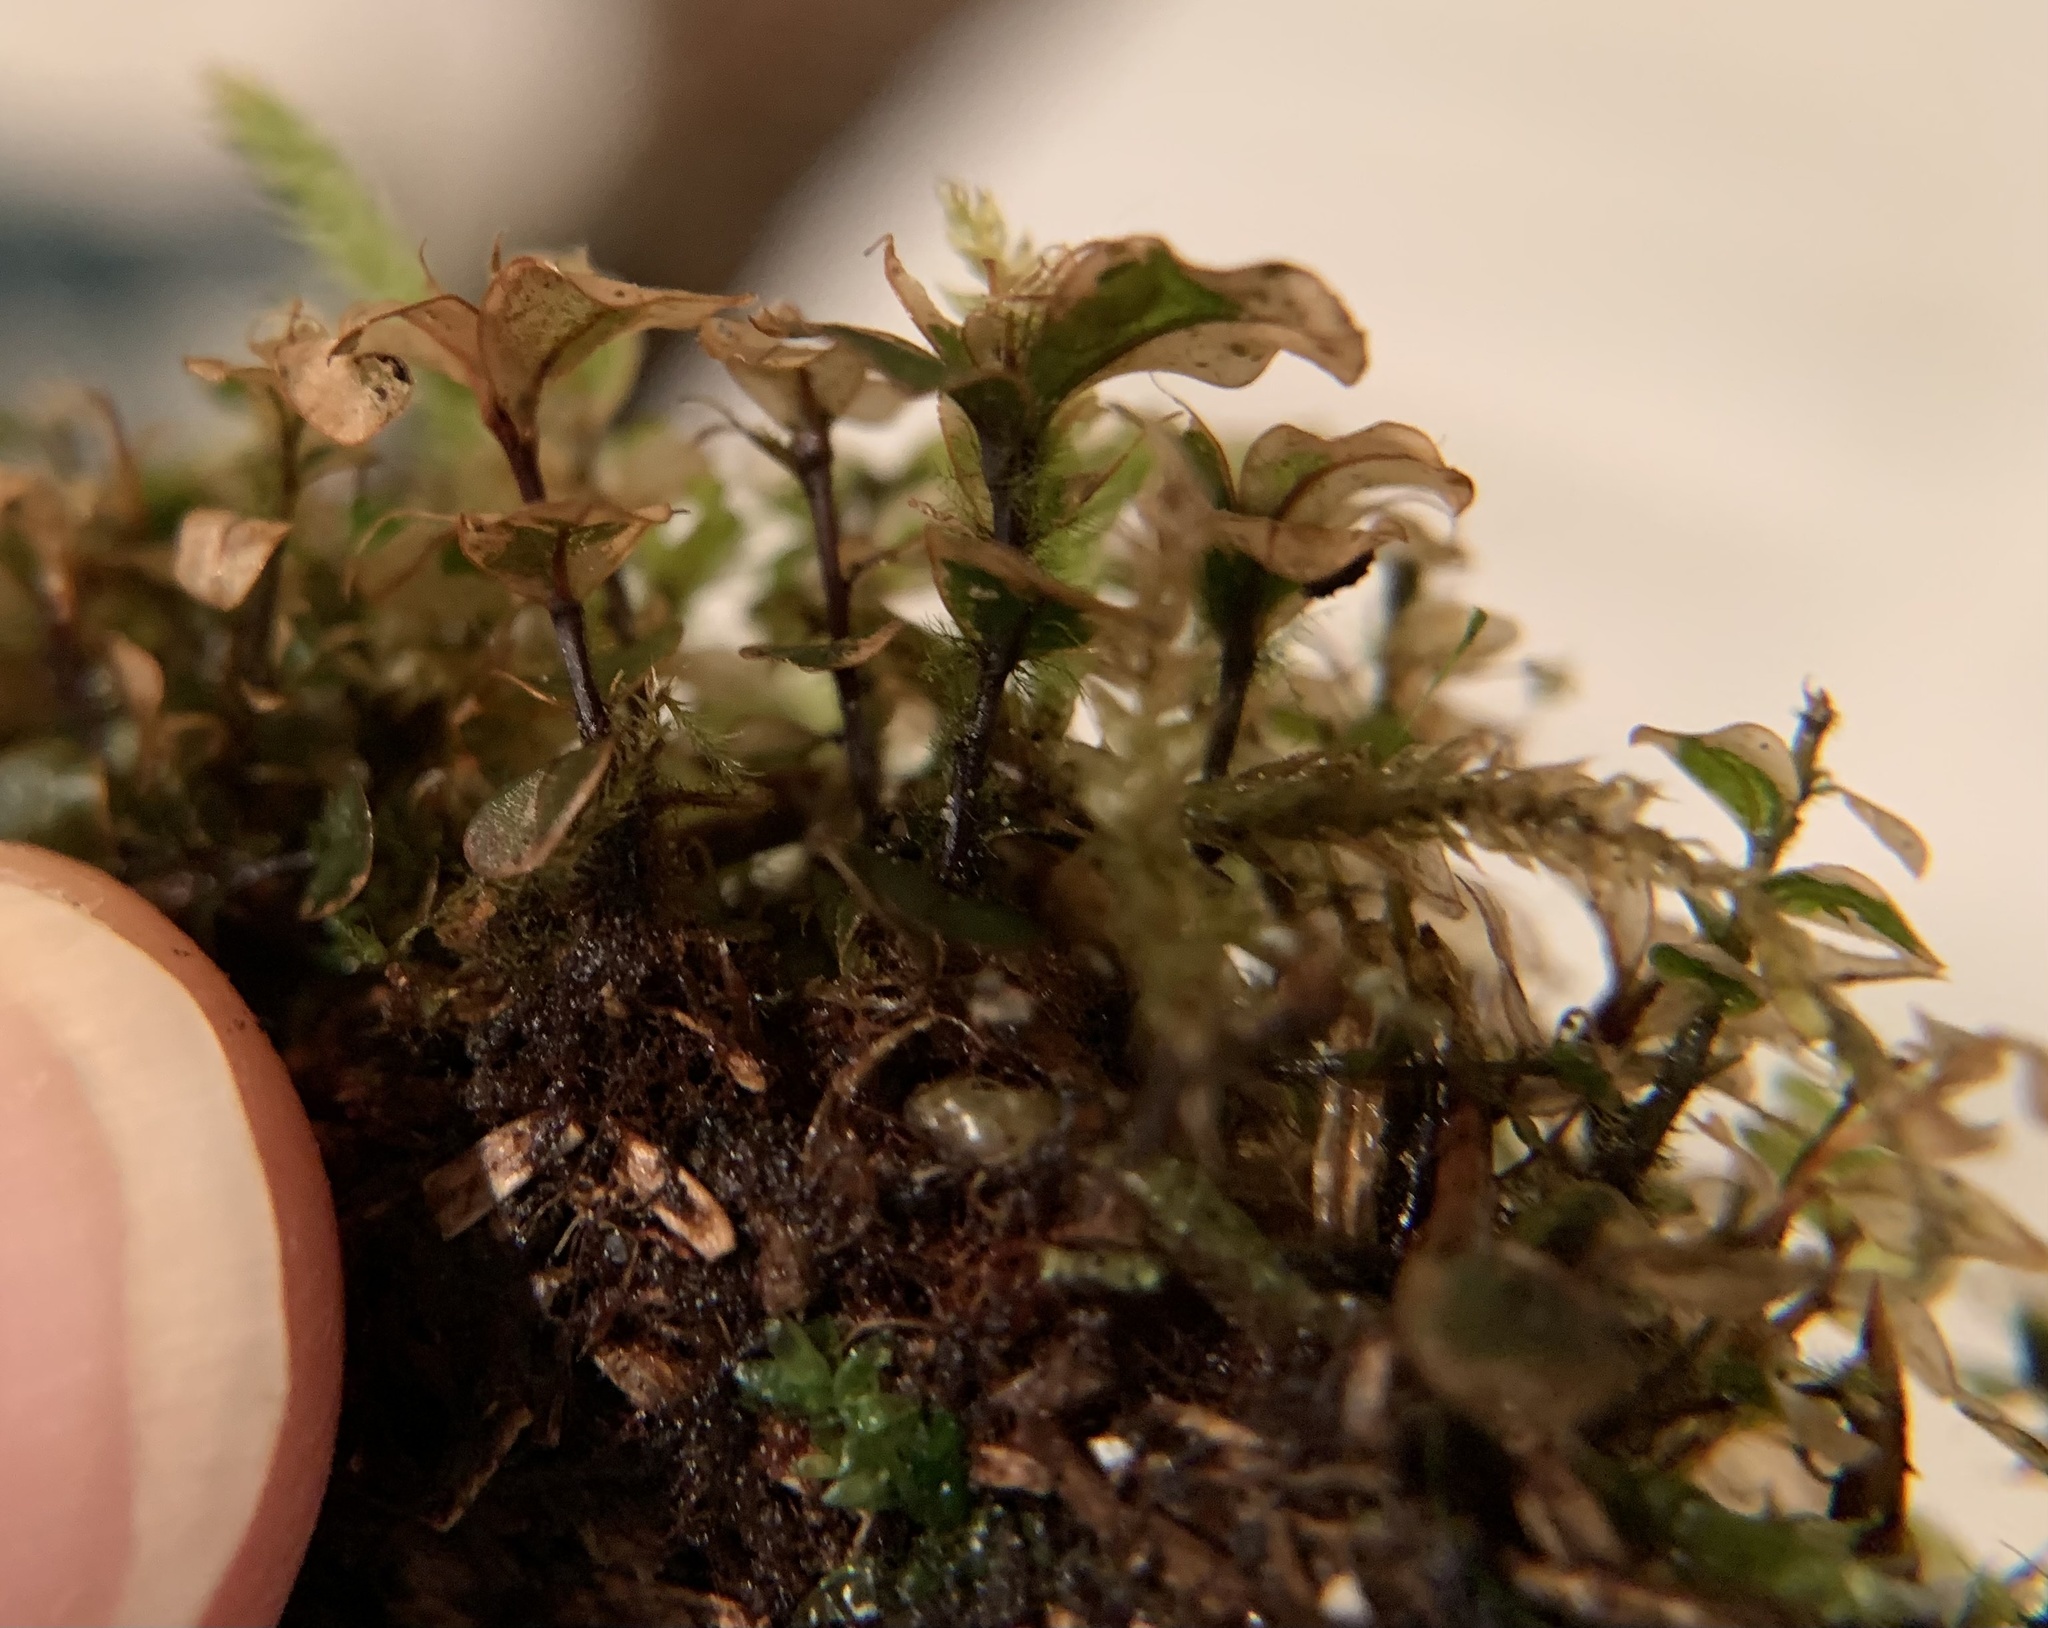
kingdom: Plantae
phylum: Bryophyta
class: Bryopsida
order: Bryales
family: Mniaceae
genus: Rhizomnium
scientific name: Rhizomnium punctatum
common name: Dotted leafy moss
